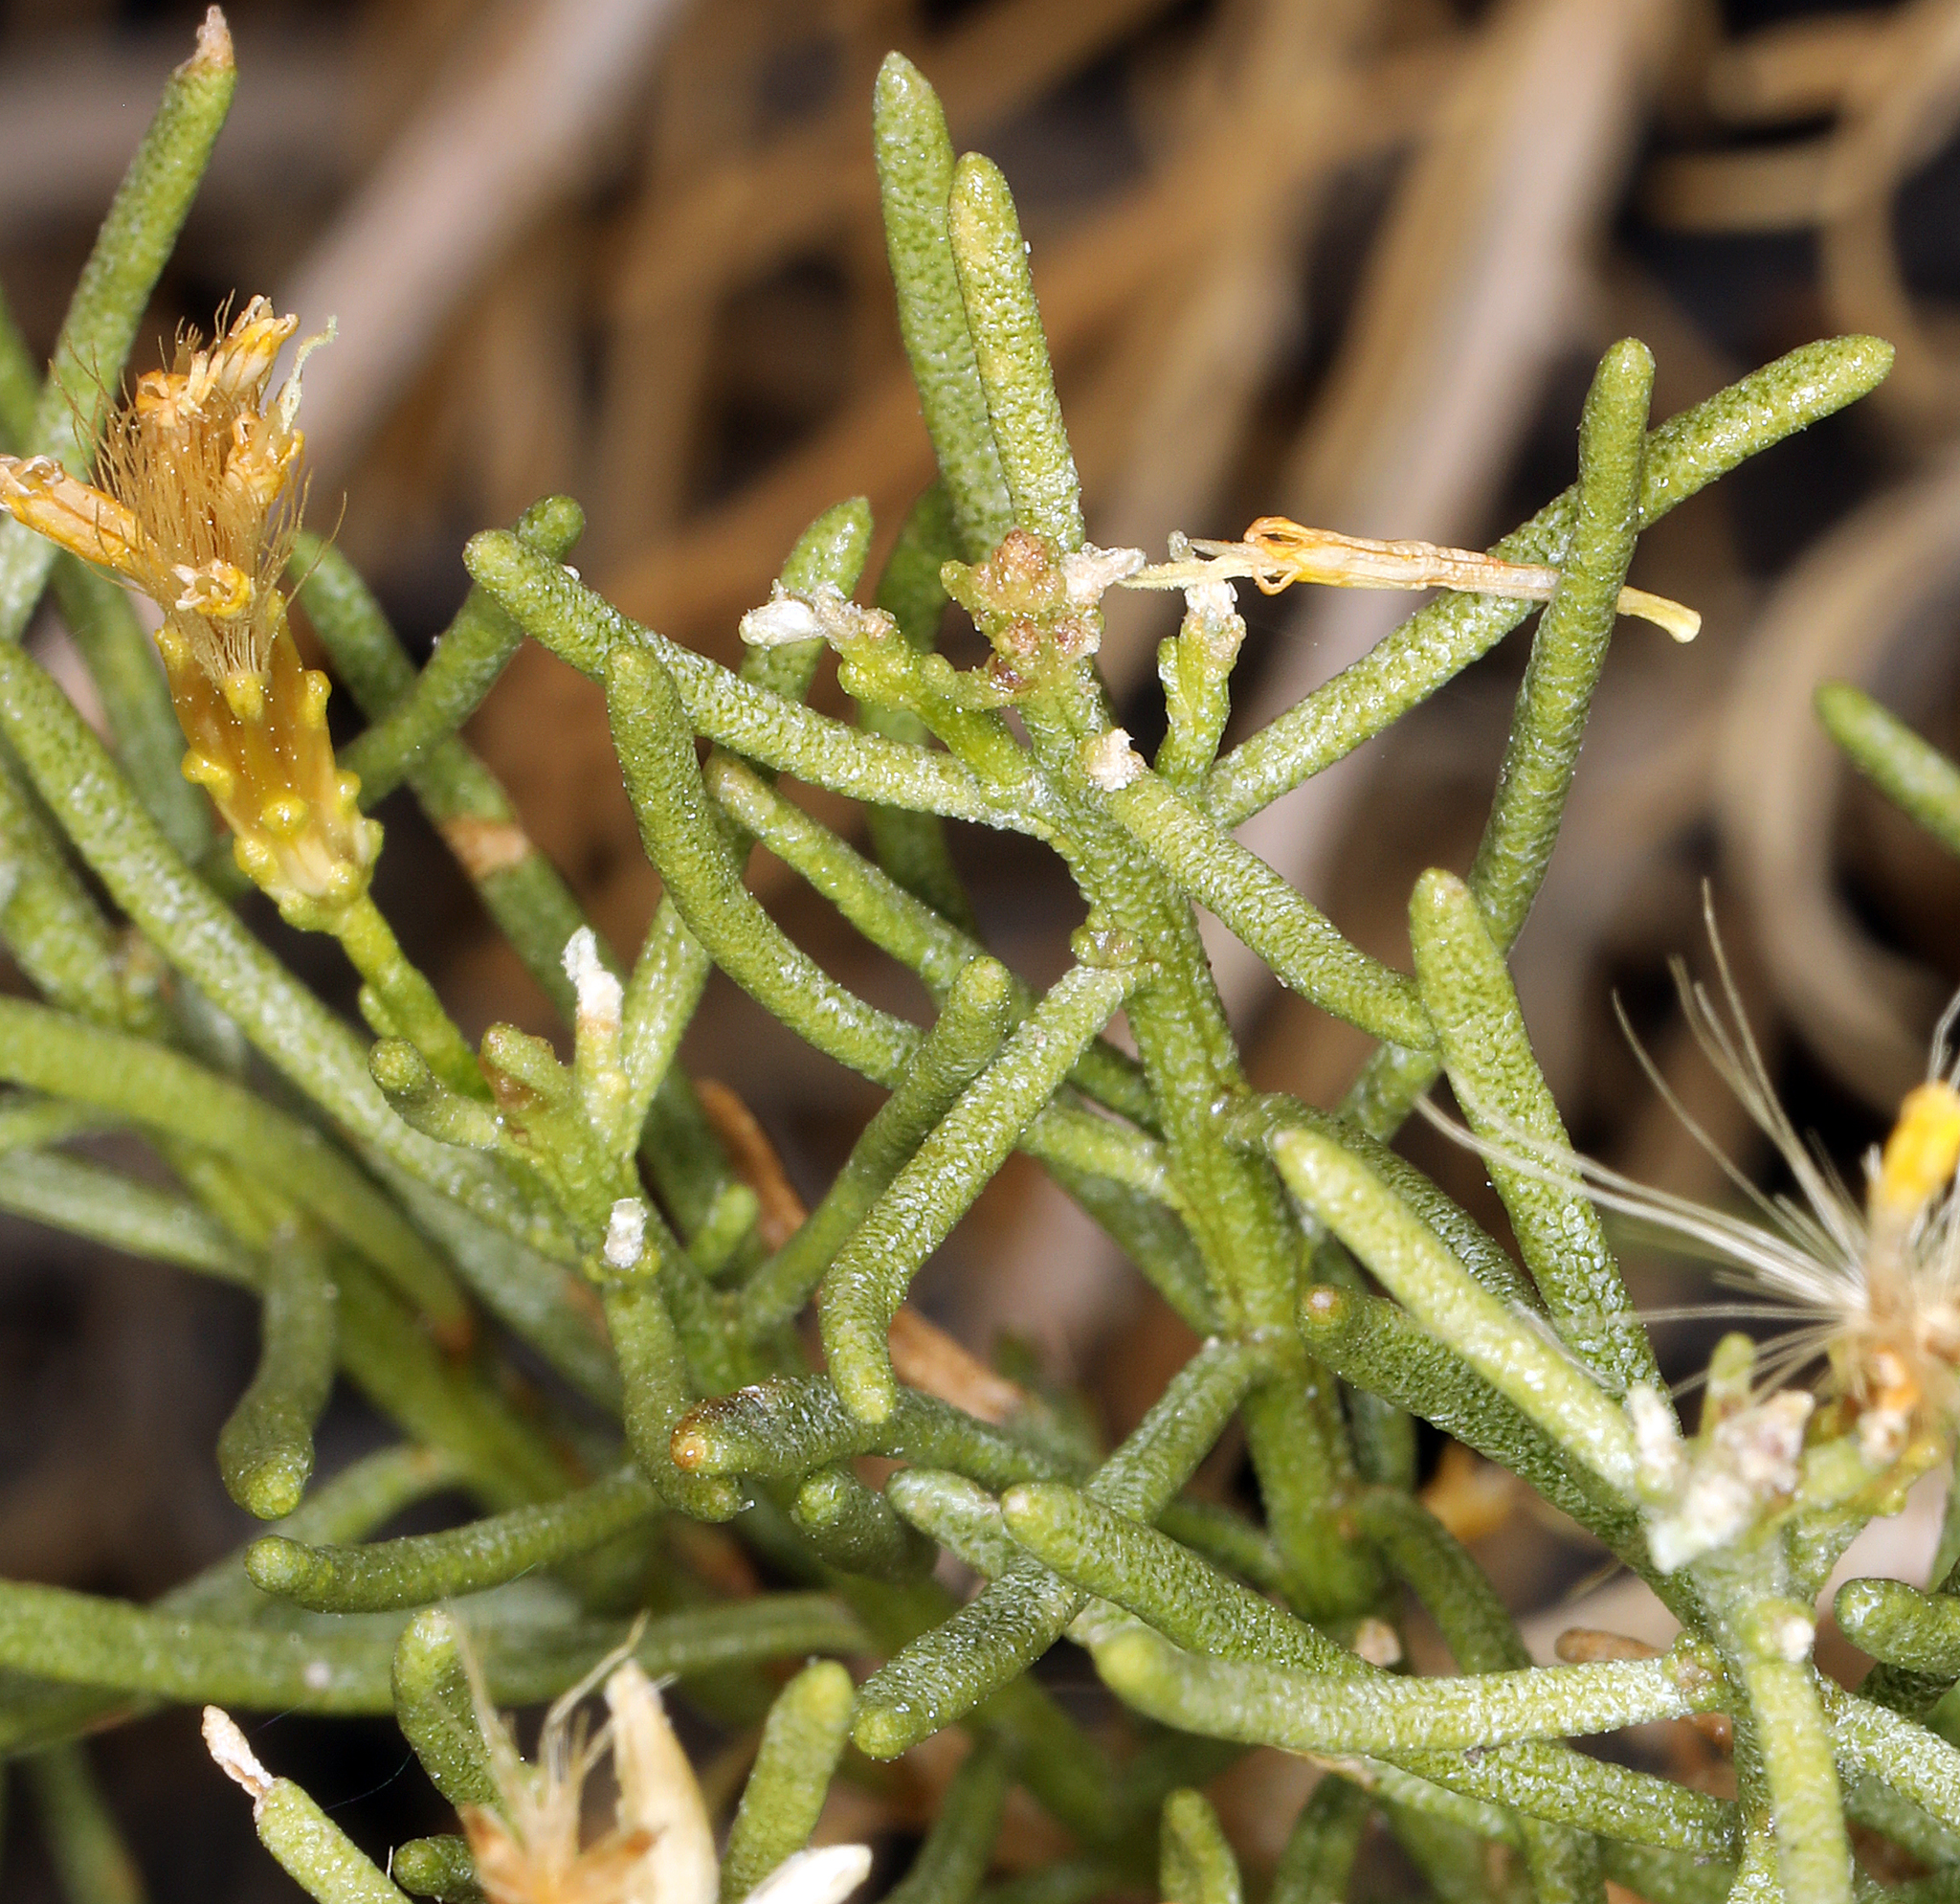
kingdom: Plantae
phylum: Tracheophyta
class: Magnoliopsida
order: Asterales
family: Asteraceae
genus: Ericameria
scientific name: Ericameria teretifolia
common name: Round-leaf rabbitbrush
